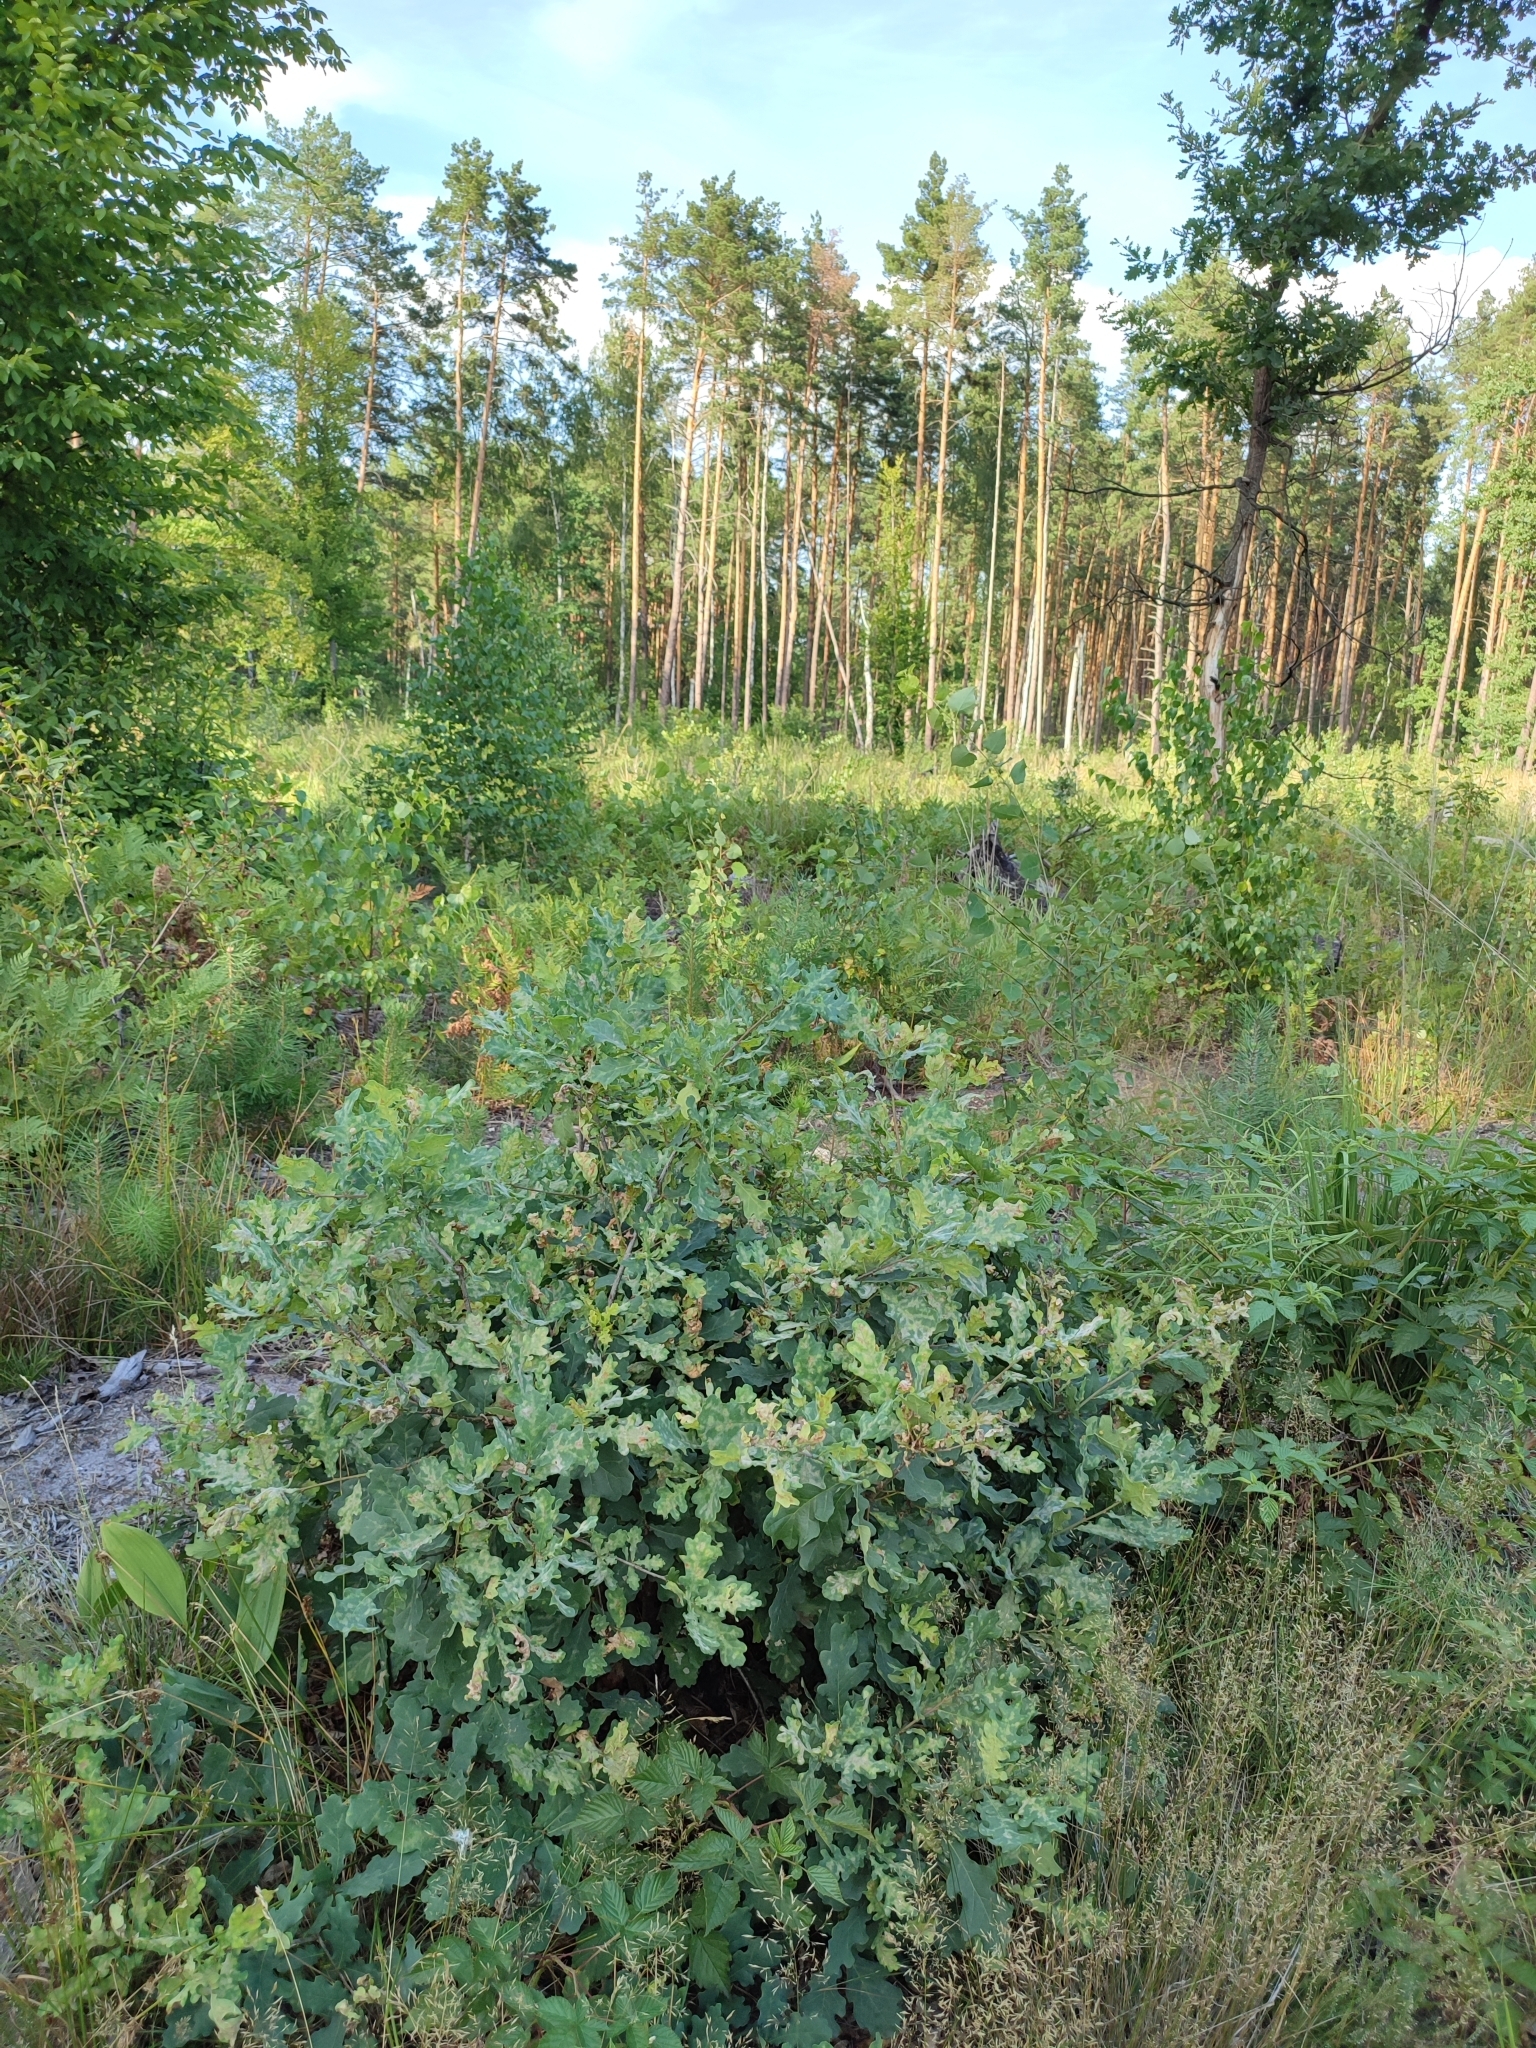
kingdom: Plantae
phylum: Tracheophyta
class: Magnoliopsida
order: Fagales
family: Fagaceae
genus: Quercus
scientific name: Quercus robur
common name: Pedunculate oak
